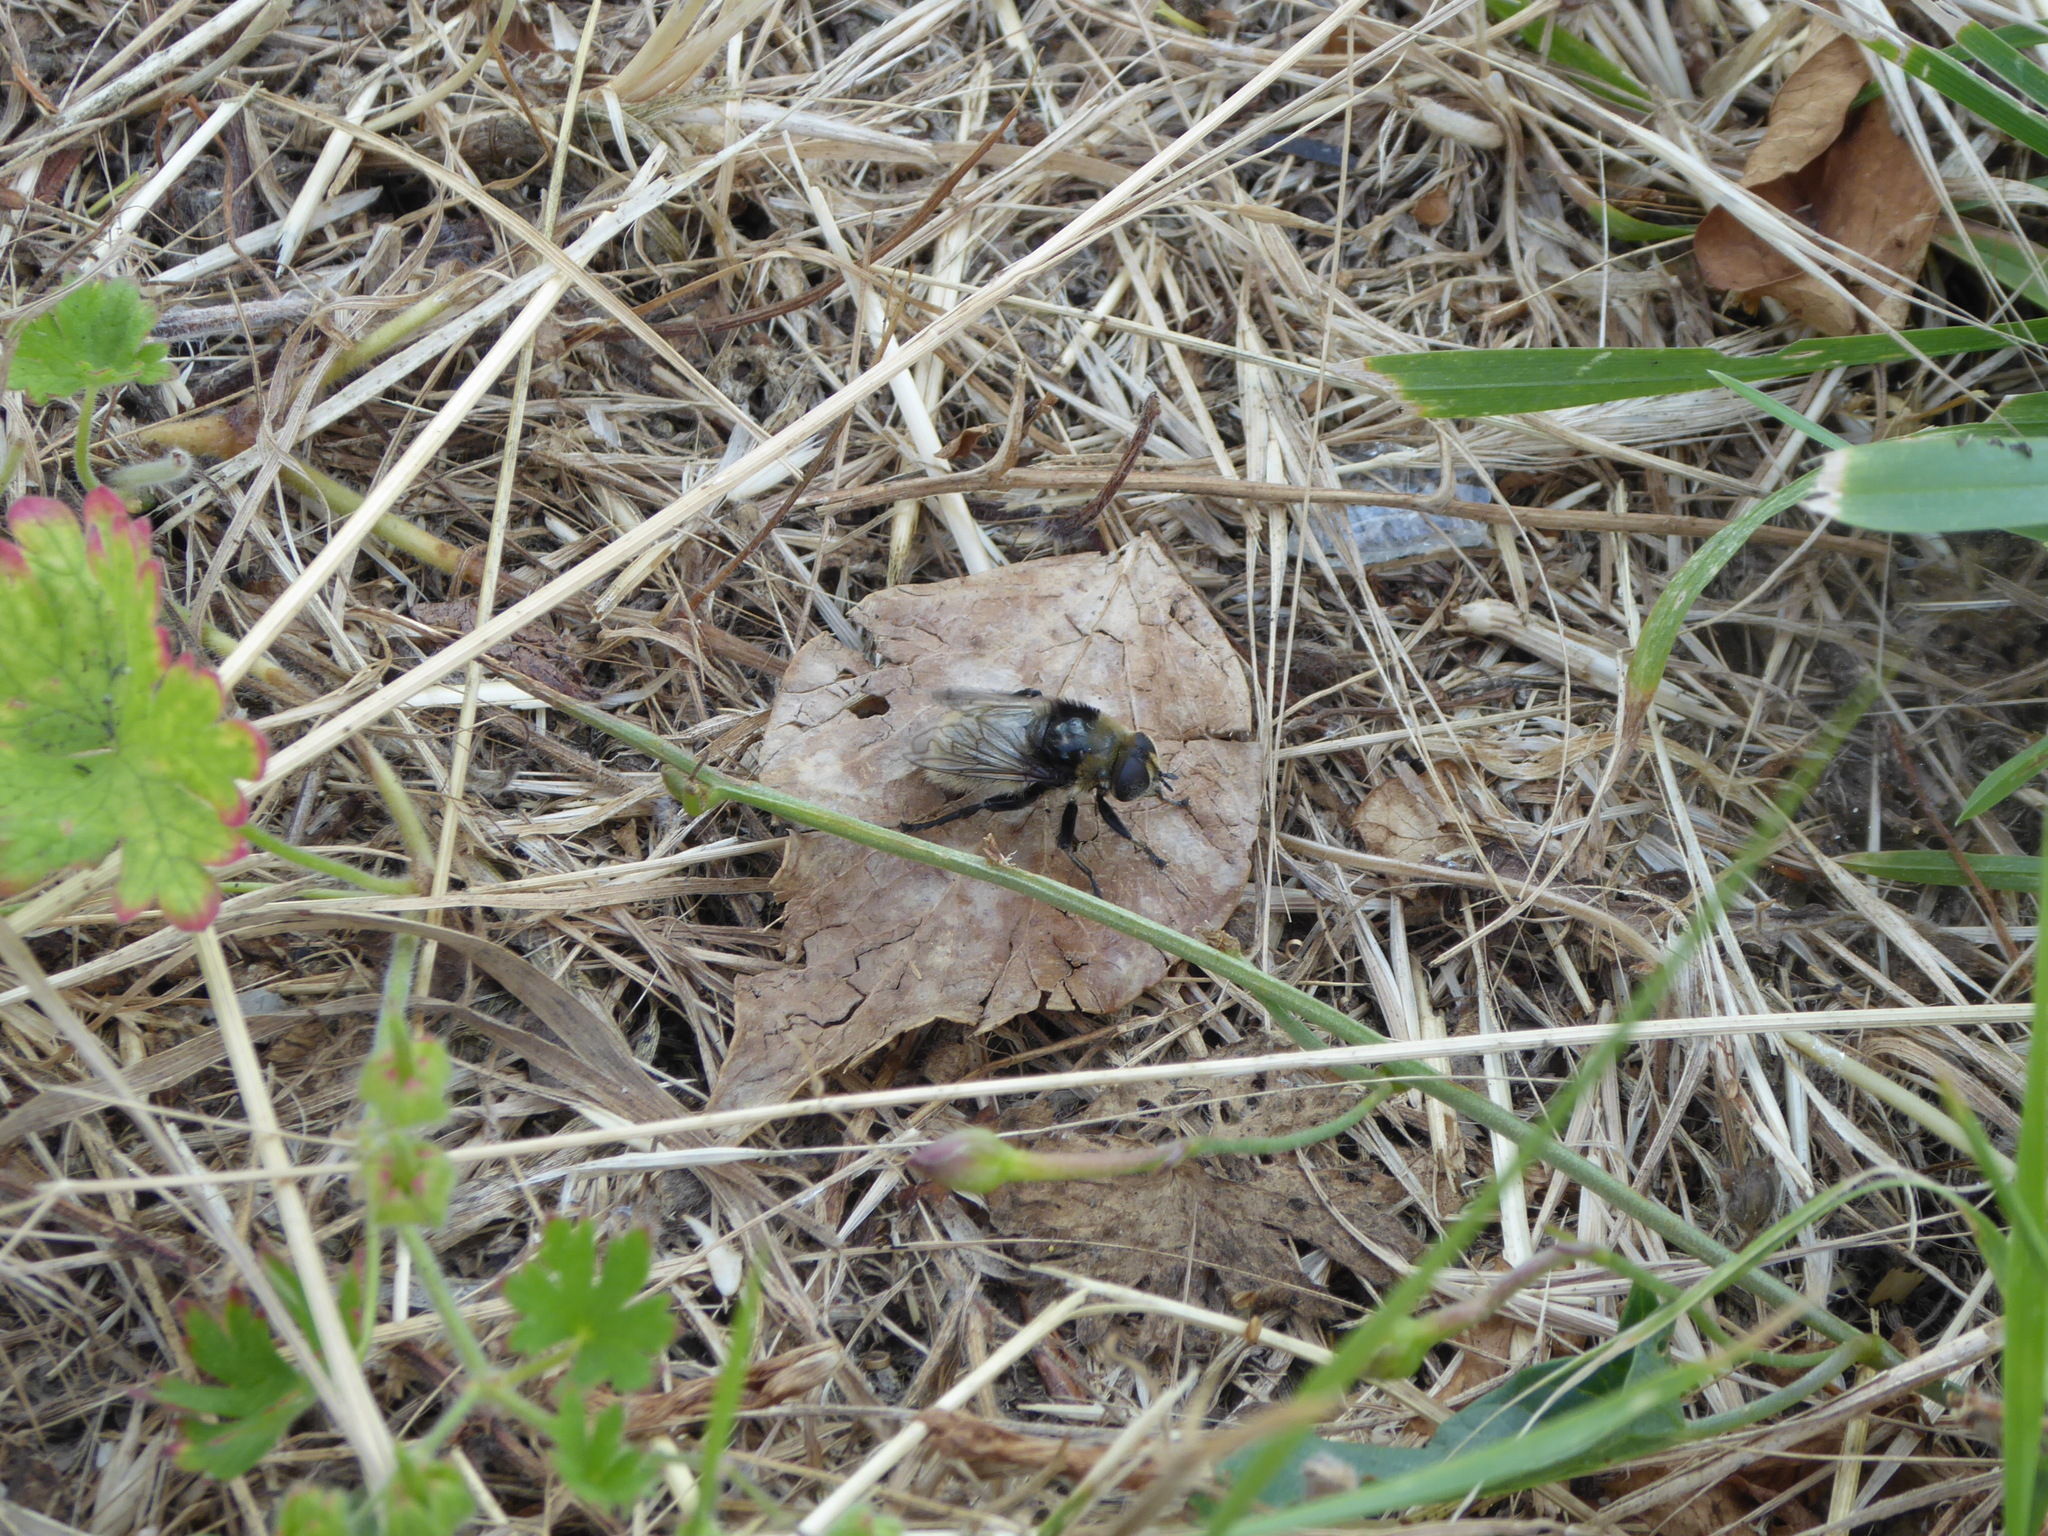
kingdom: Animalia
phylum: Arthropoda
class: Insecta
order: Diptera
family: Syrphidae
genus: Merodon
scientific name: Merodon equestris
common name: Greater bulb-fly
